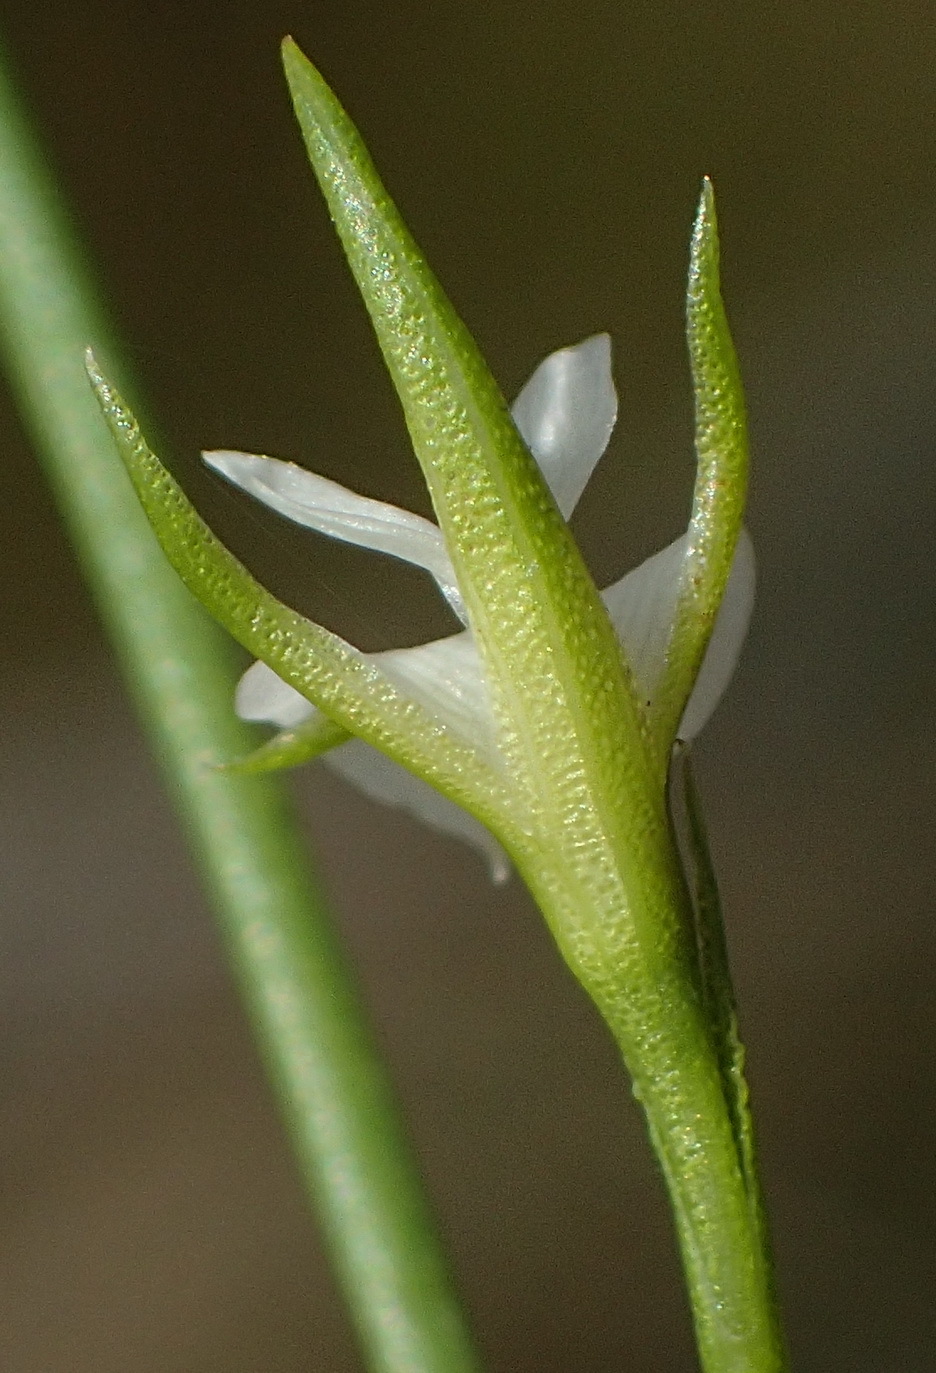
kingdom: Plantae
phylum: Tracheophyta
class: Magnoliopsida
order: Fabales
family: Fabaceae
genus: Psoralea
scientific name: Psoralea
